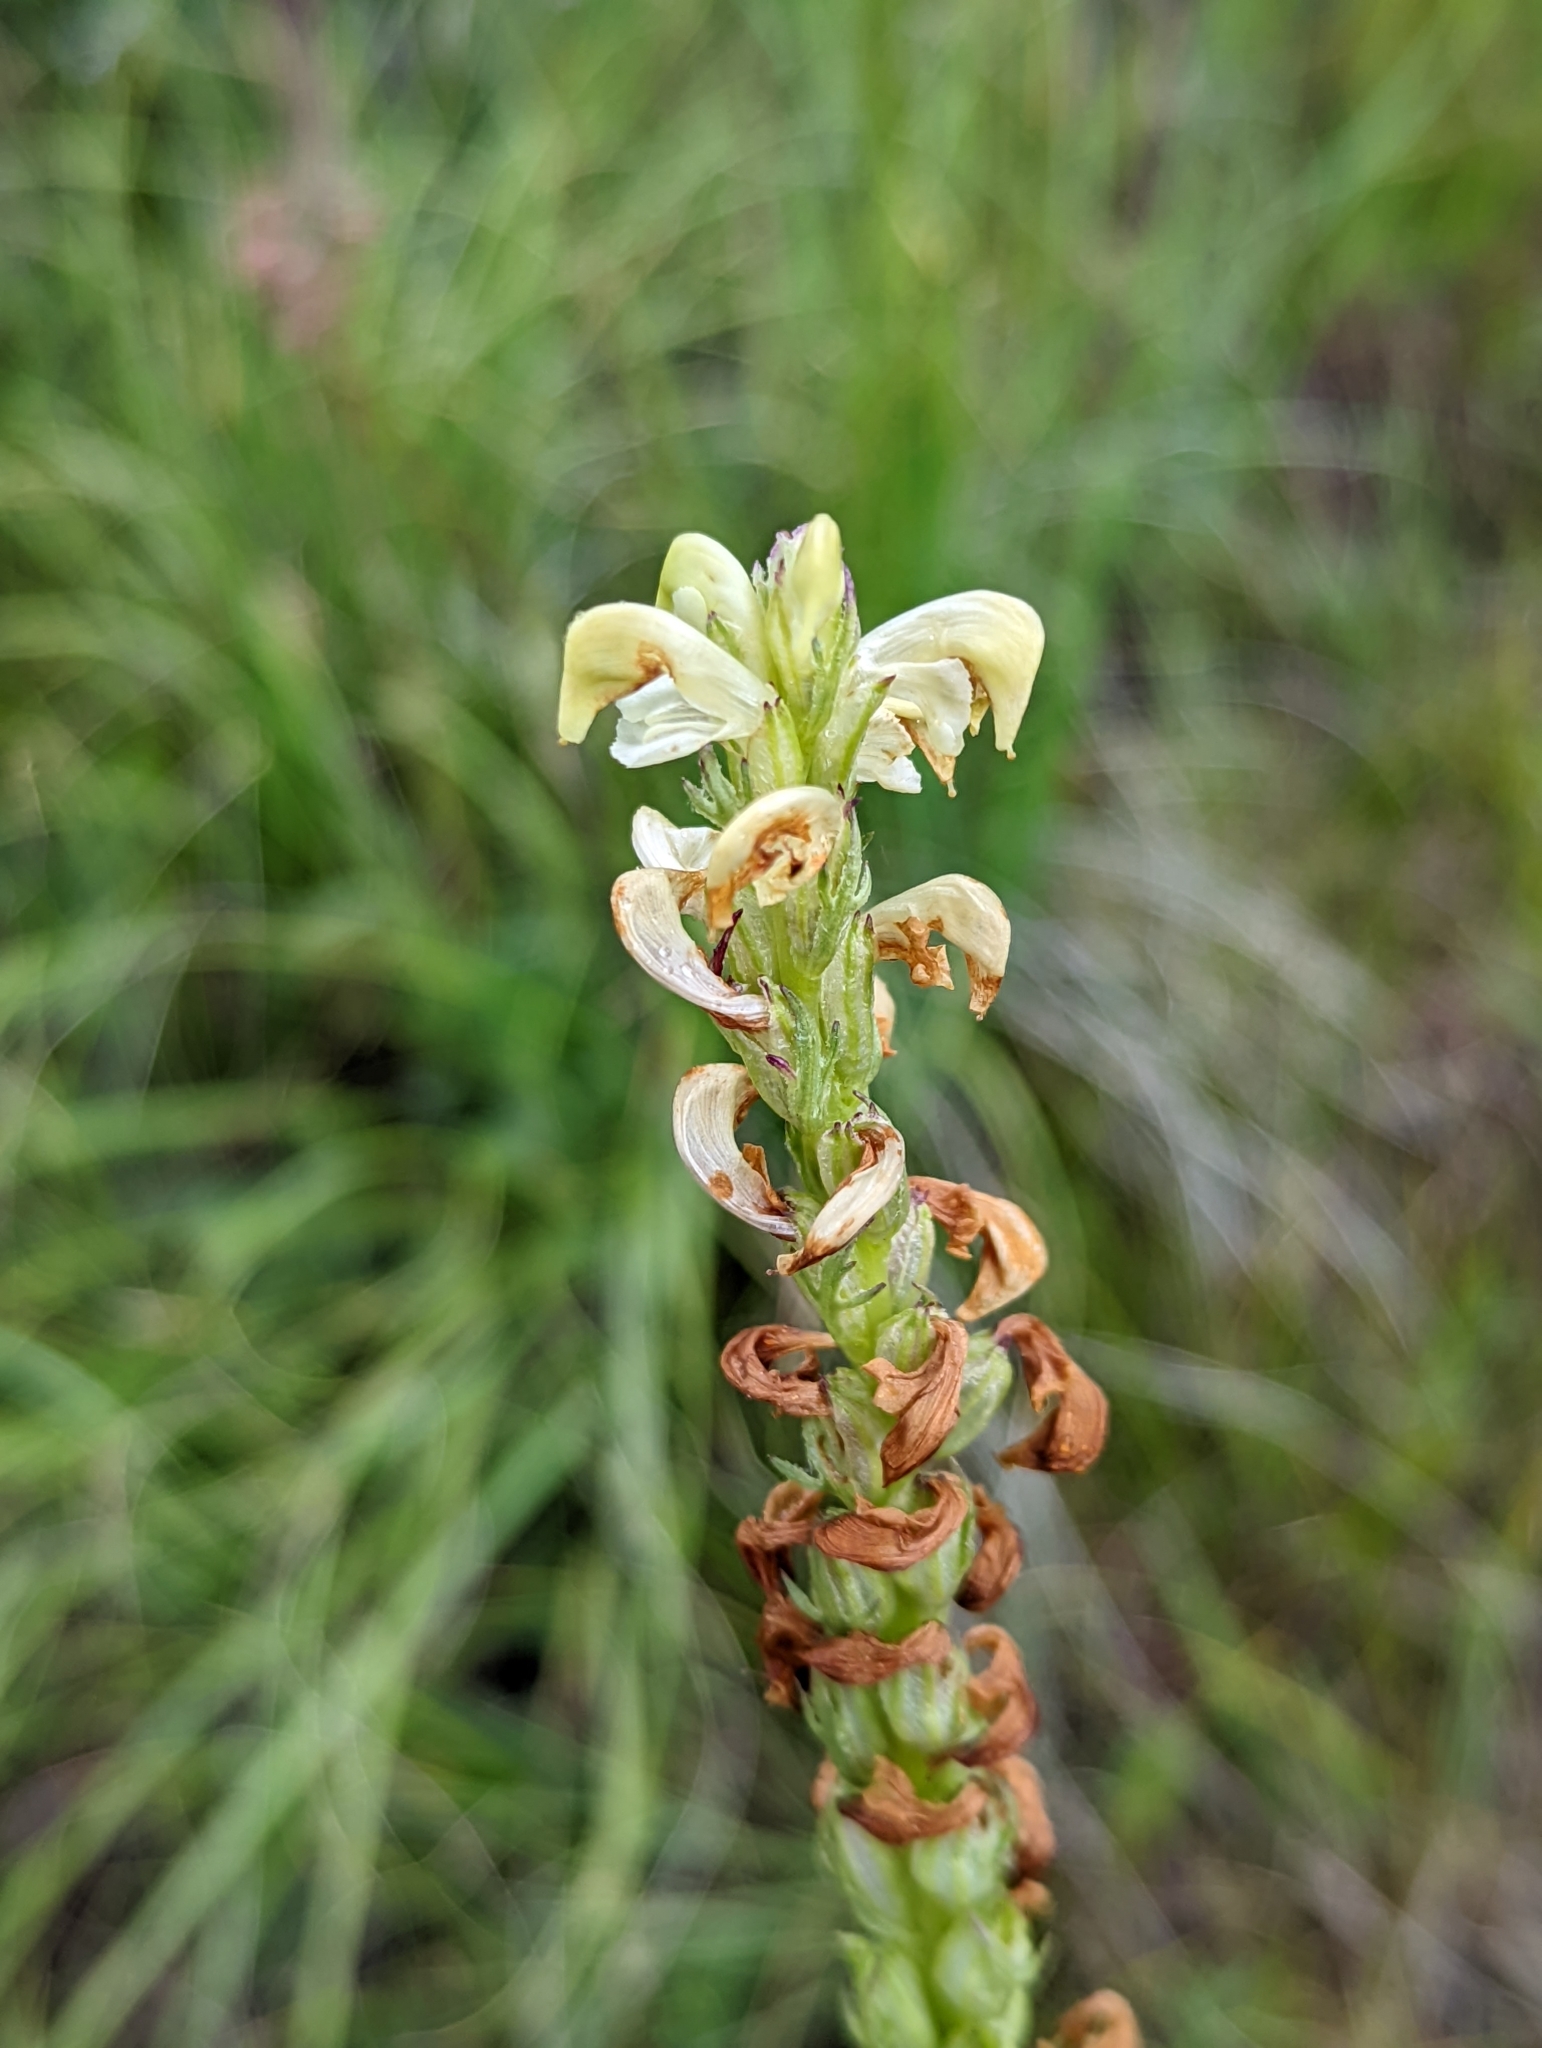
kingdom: Plantae
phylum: Tracheophyta
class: Magnoliopsida
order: Lamiales
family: Orobanchaceae
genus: Pedicularis
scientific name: Pedicularis parryi
